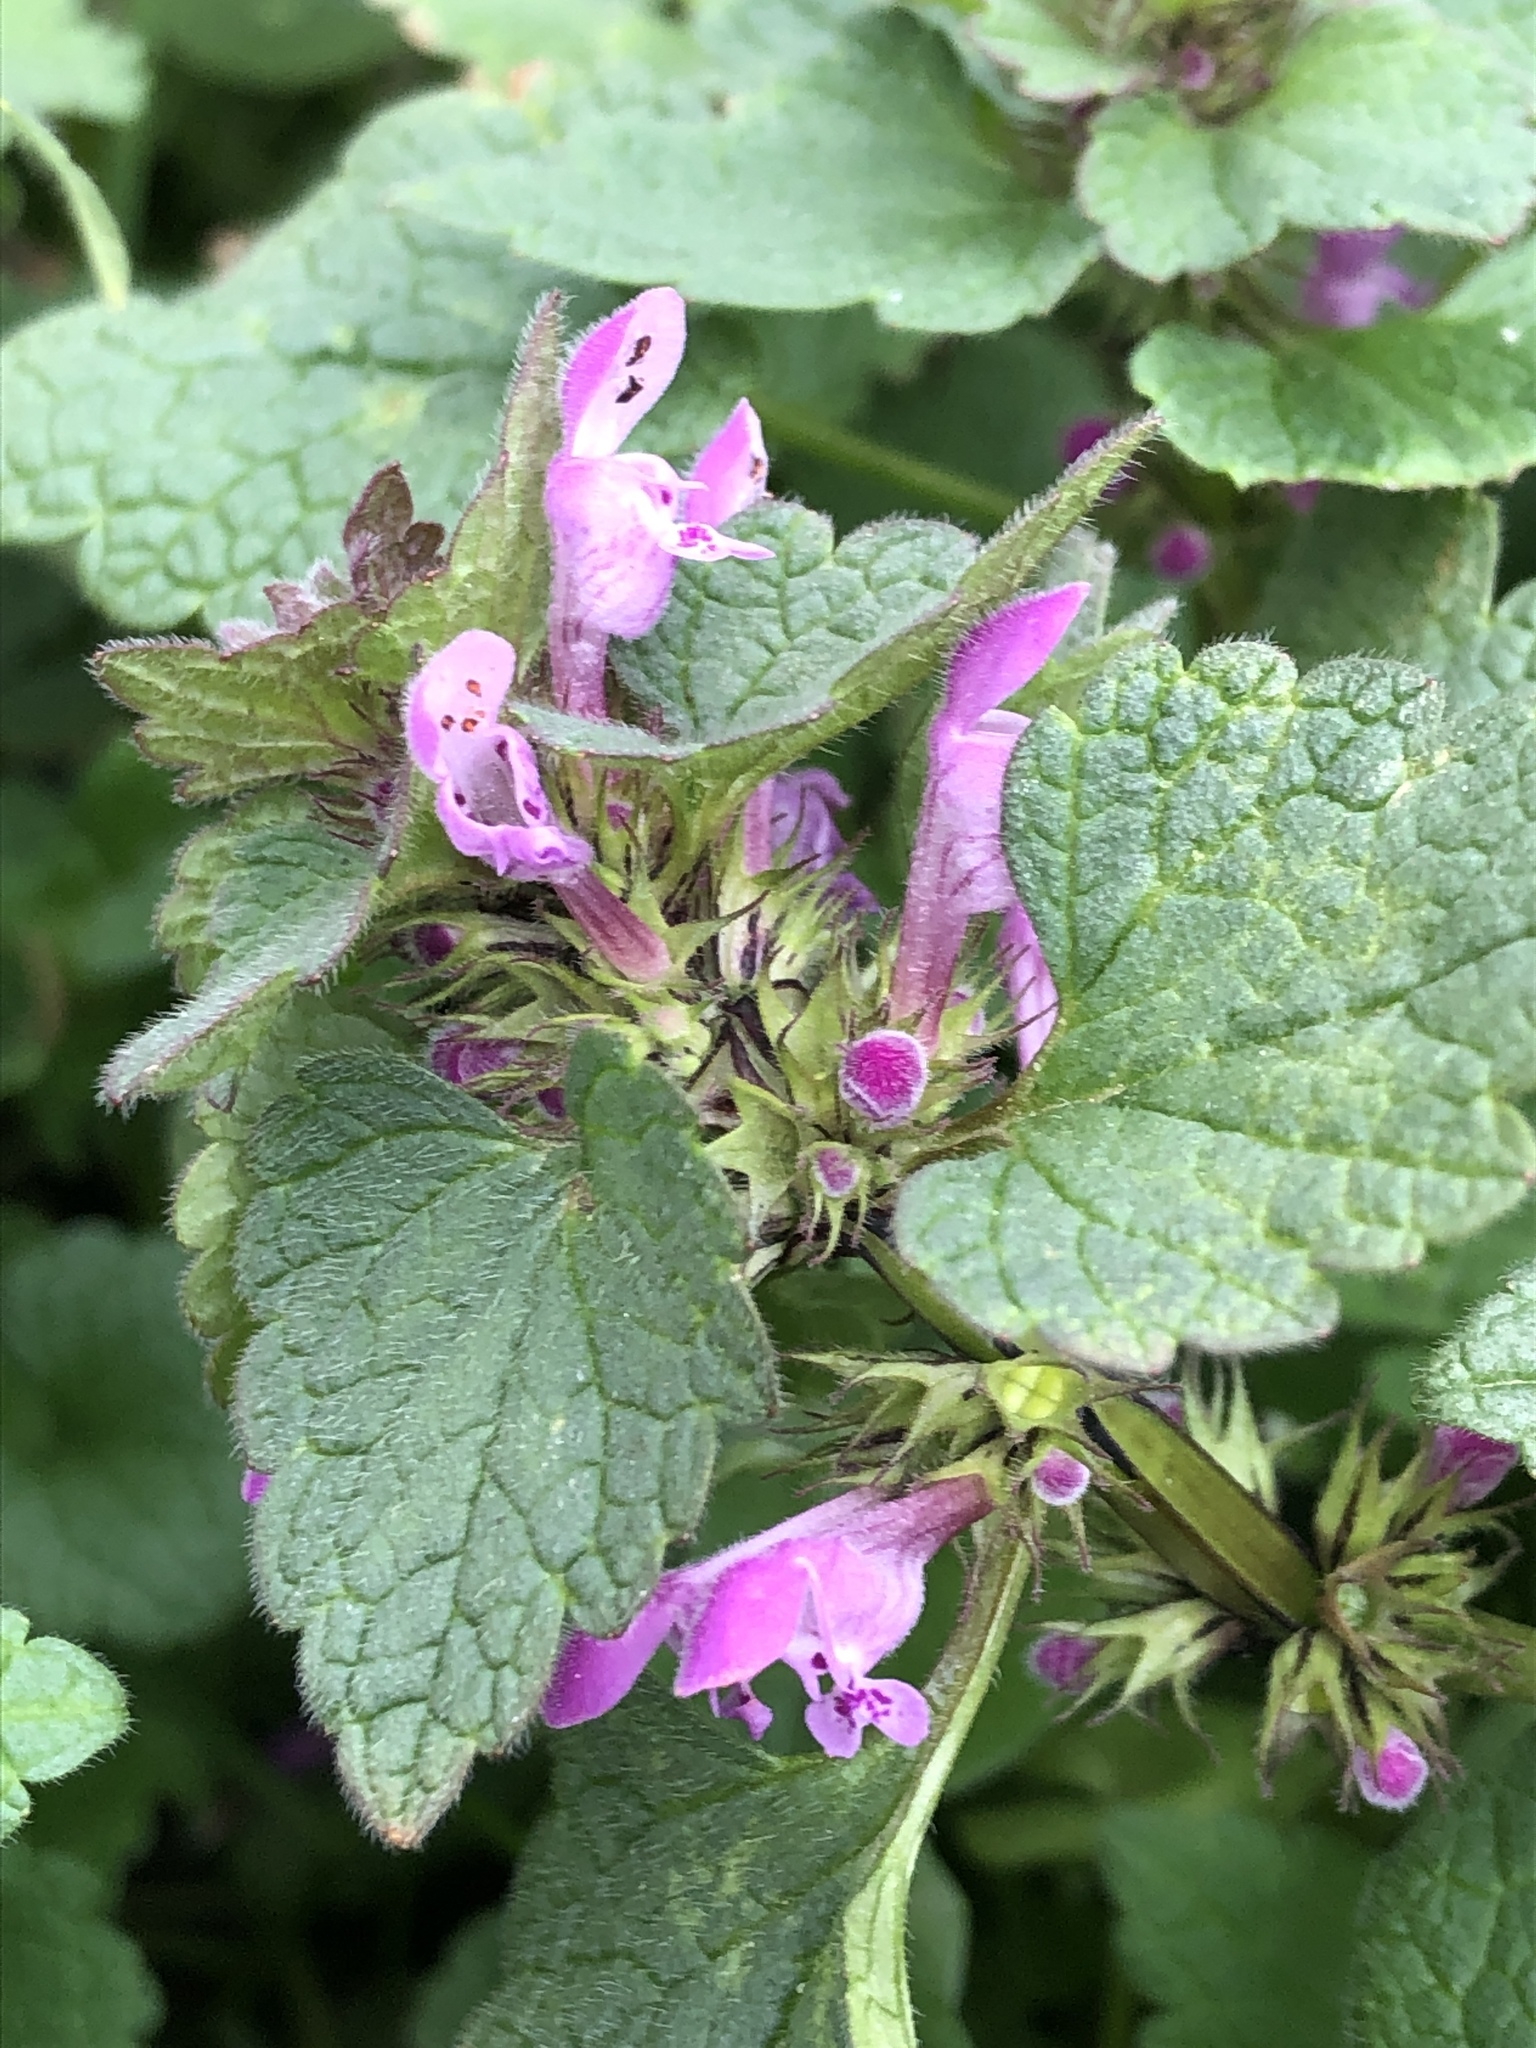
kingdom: Plantae
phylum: Tracheophyta
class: Magnoliopsida
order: Lamiales
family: Lamiaceae
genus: Lamium
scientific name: Lamium purpureum
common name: Red dead-nettle
